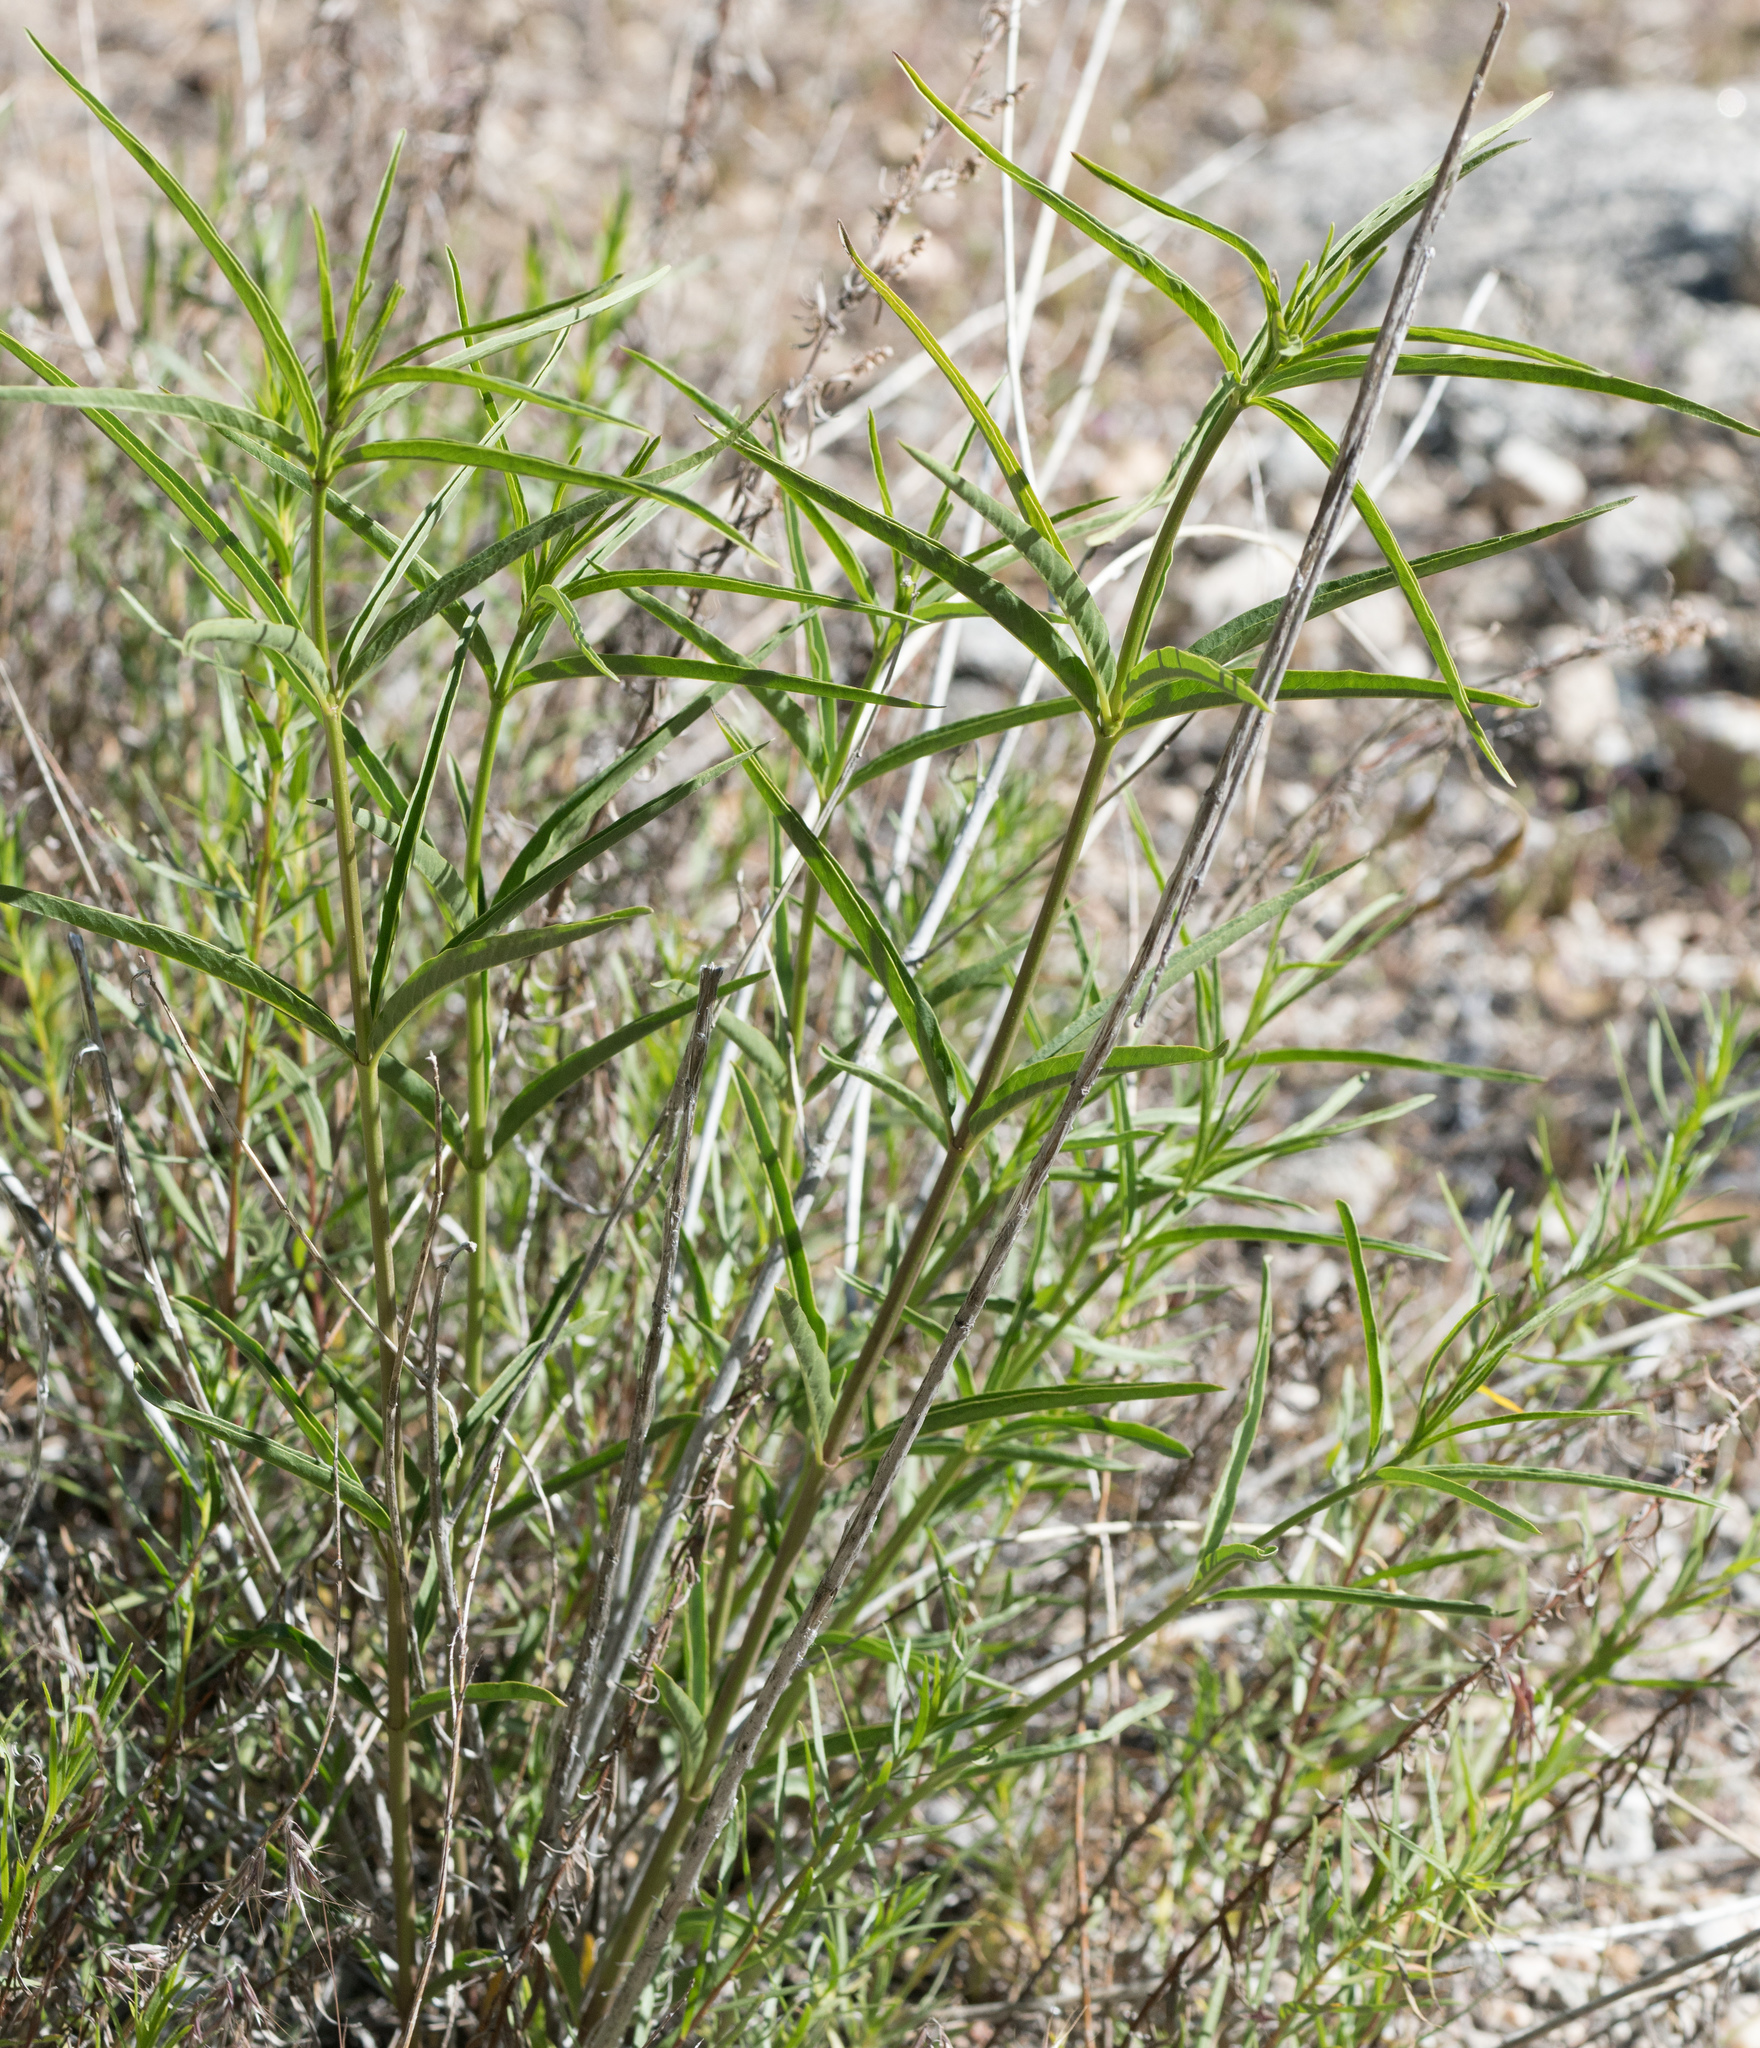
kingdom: Plantae
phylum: Tracheophyta
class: Magnoliopsida
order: Gentianales
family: Apocynaceae
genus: Asclepias
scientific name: Asclepias fascicularis
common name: Mexican milkweed
